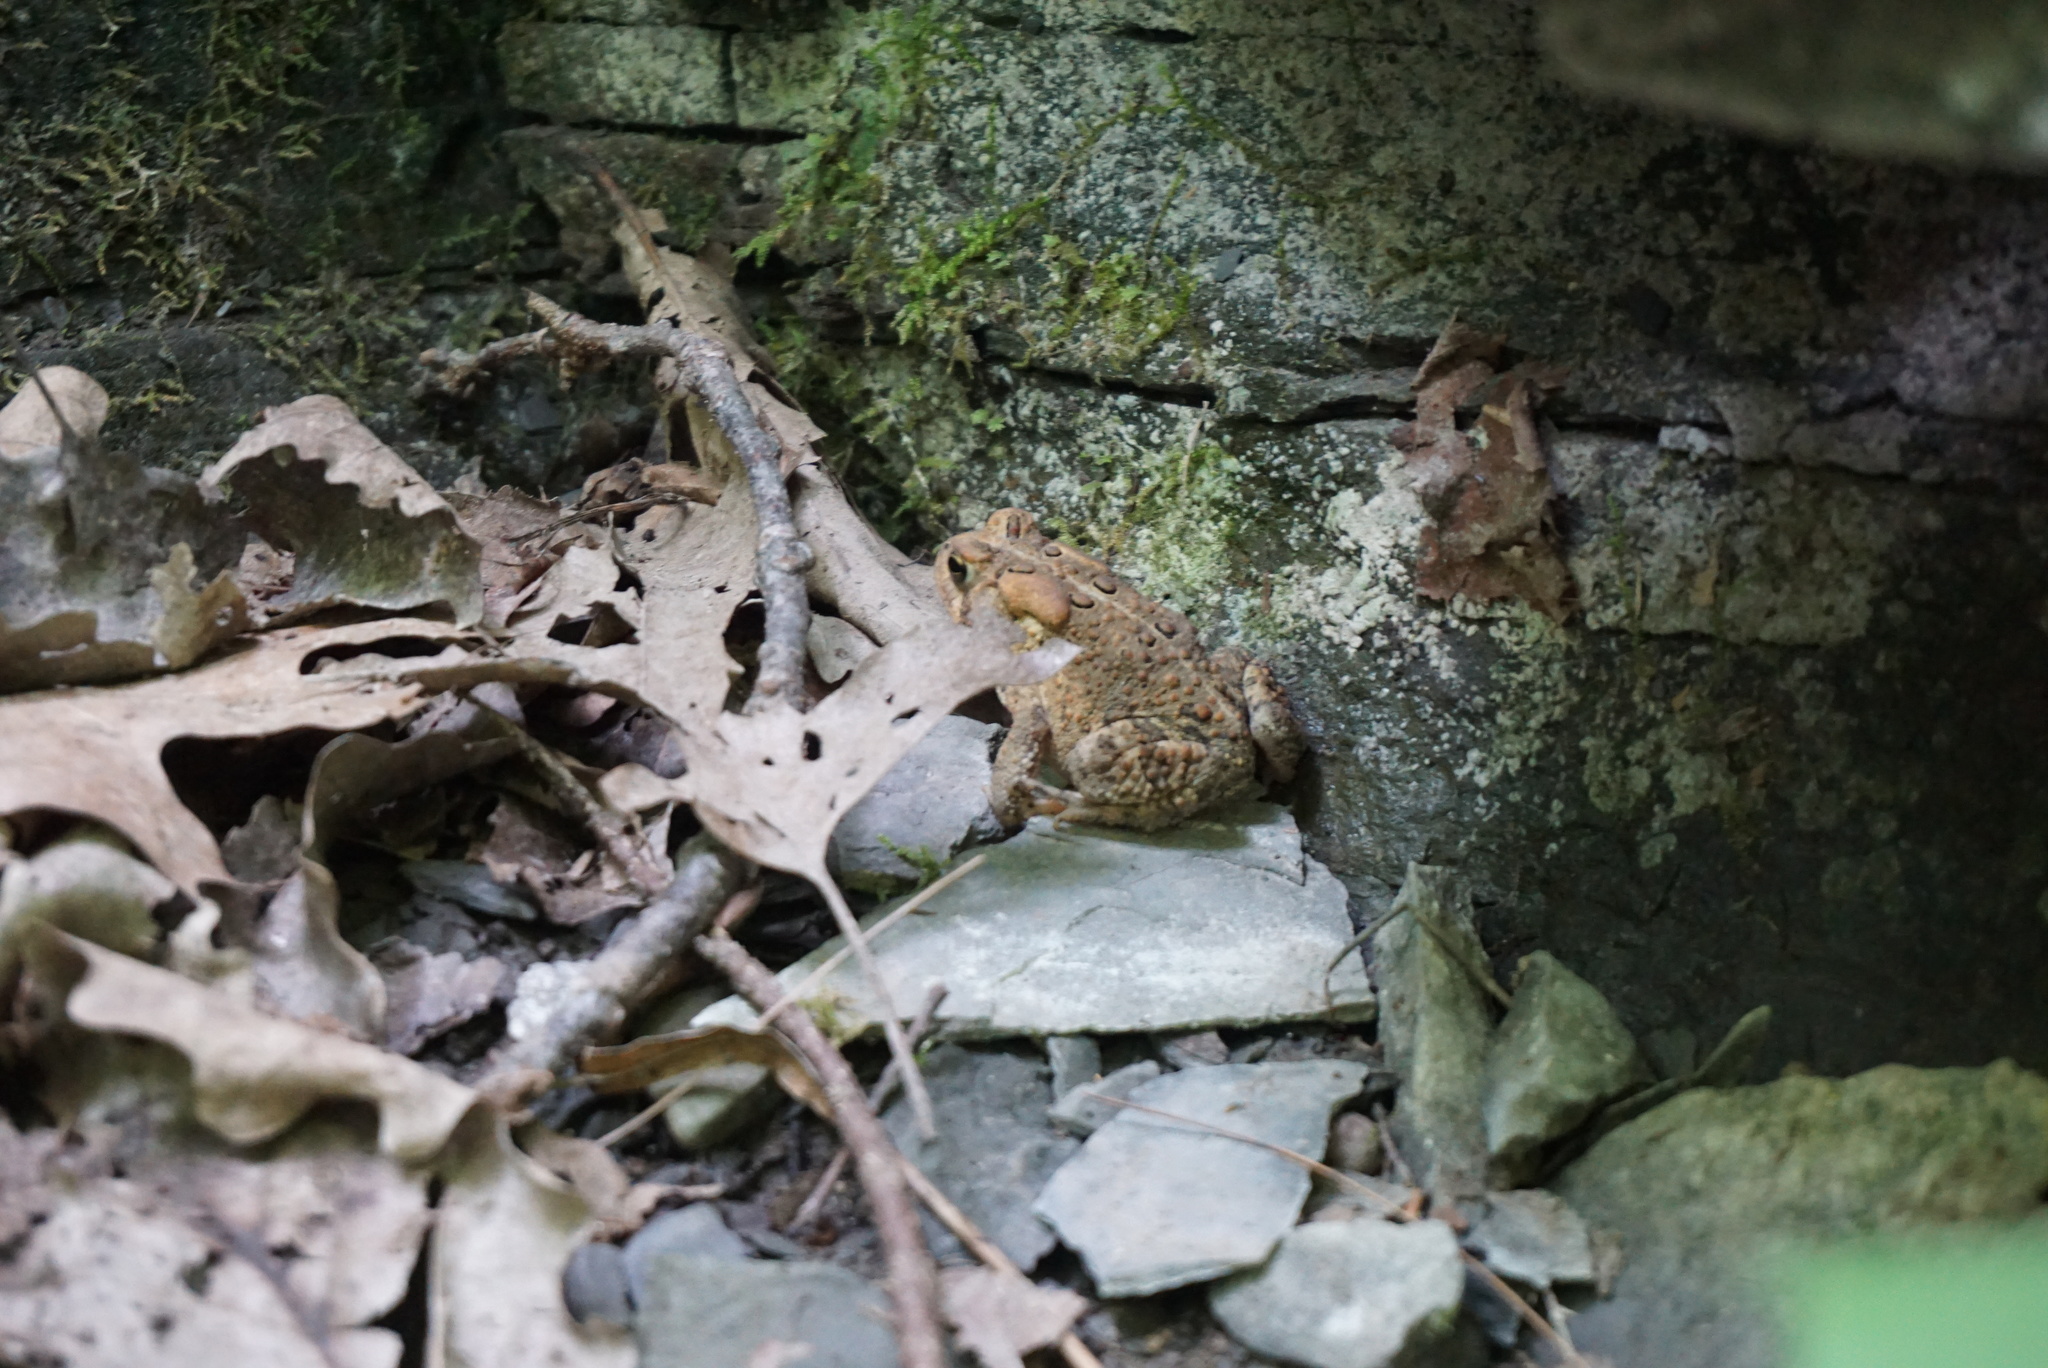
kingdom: Animalia
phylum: Chordata
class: Amphibia
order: Anura
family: Bufonidae
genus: Anaxyrus
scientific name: Anaxyrus americanus
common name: American toad
